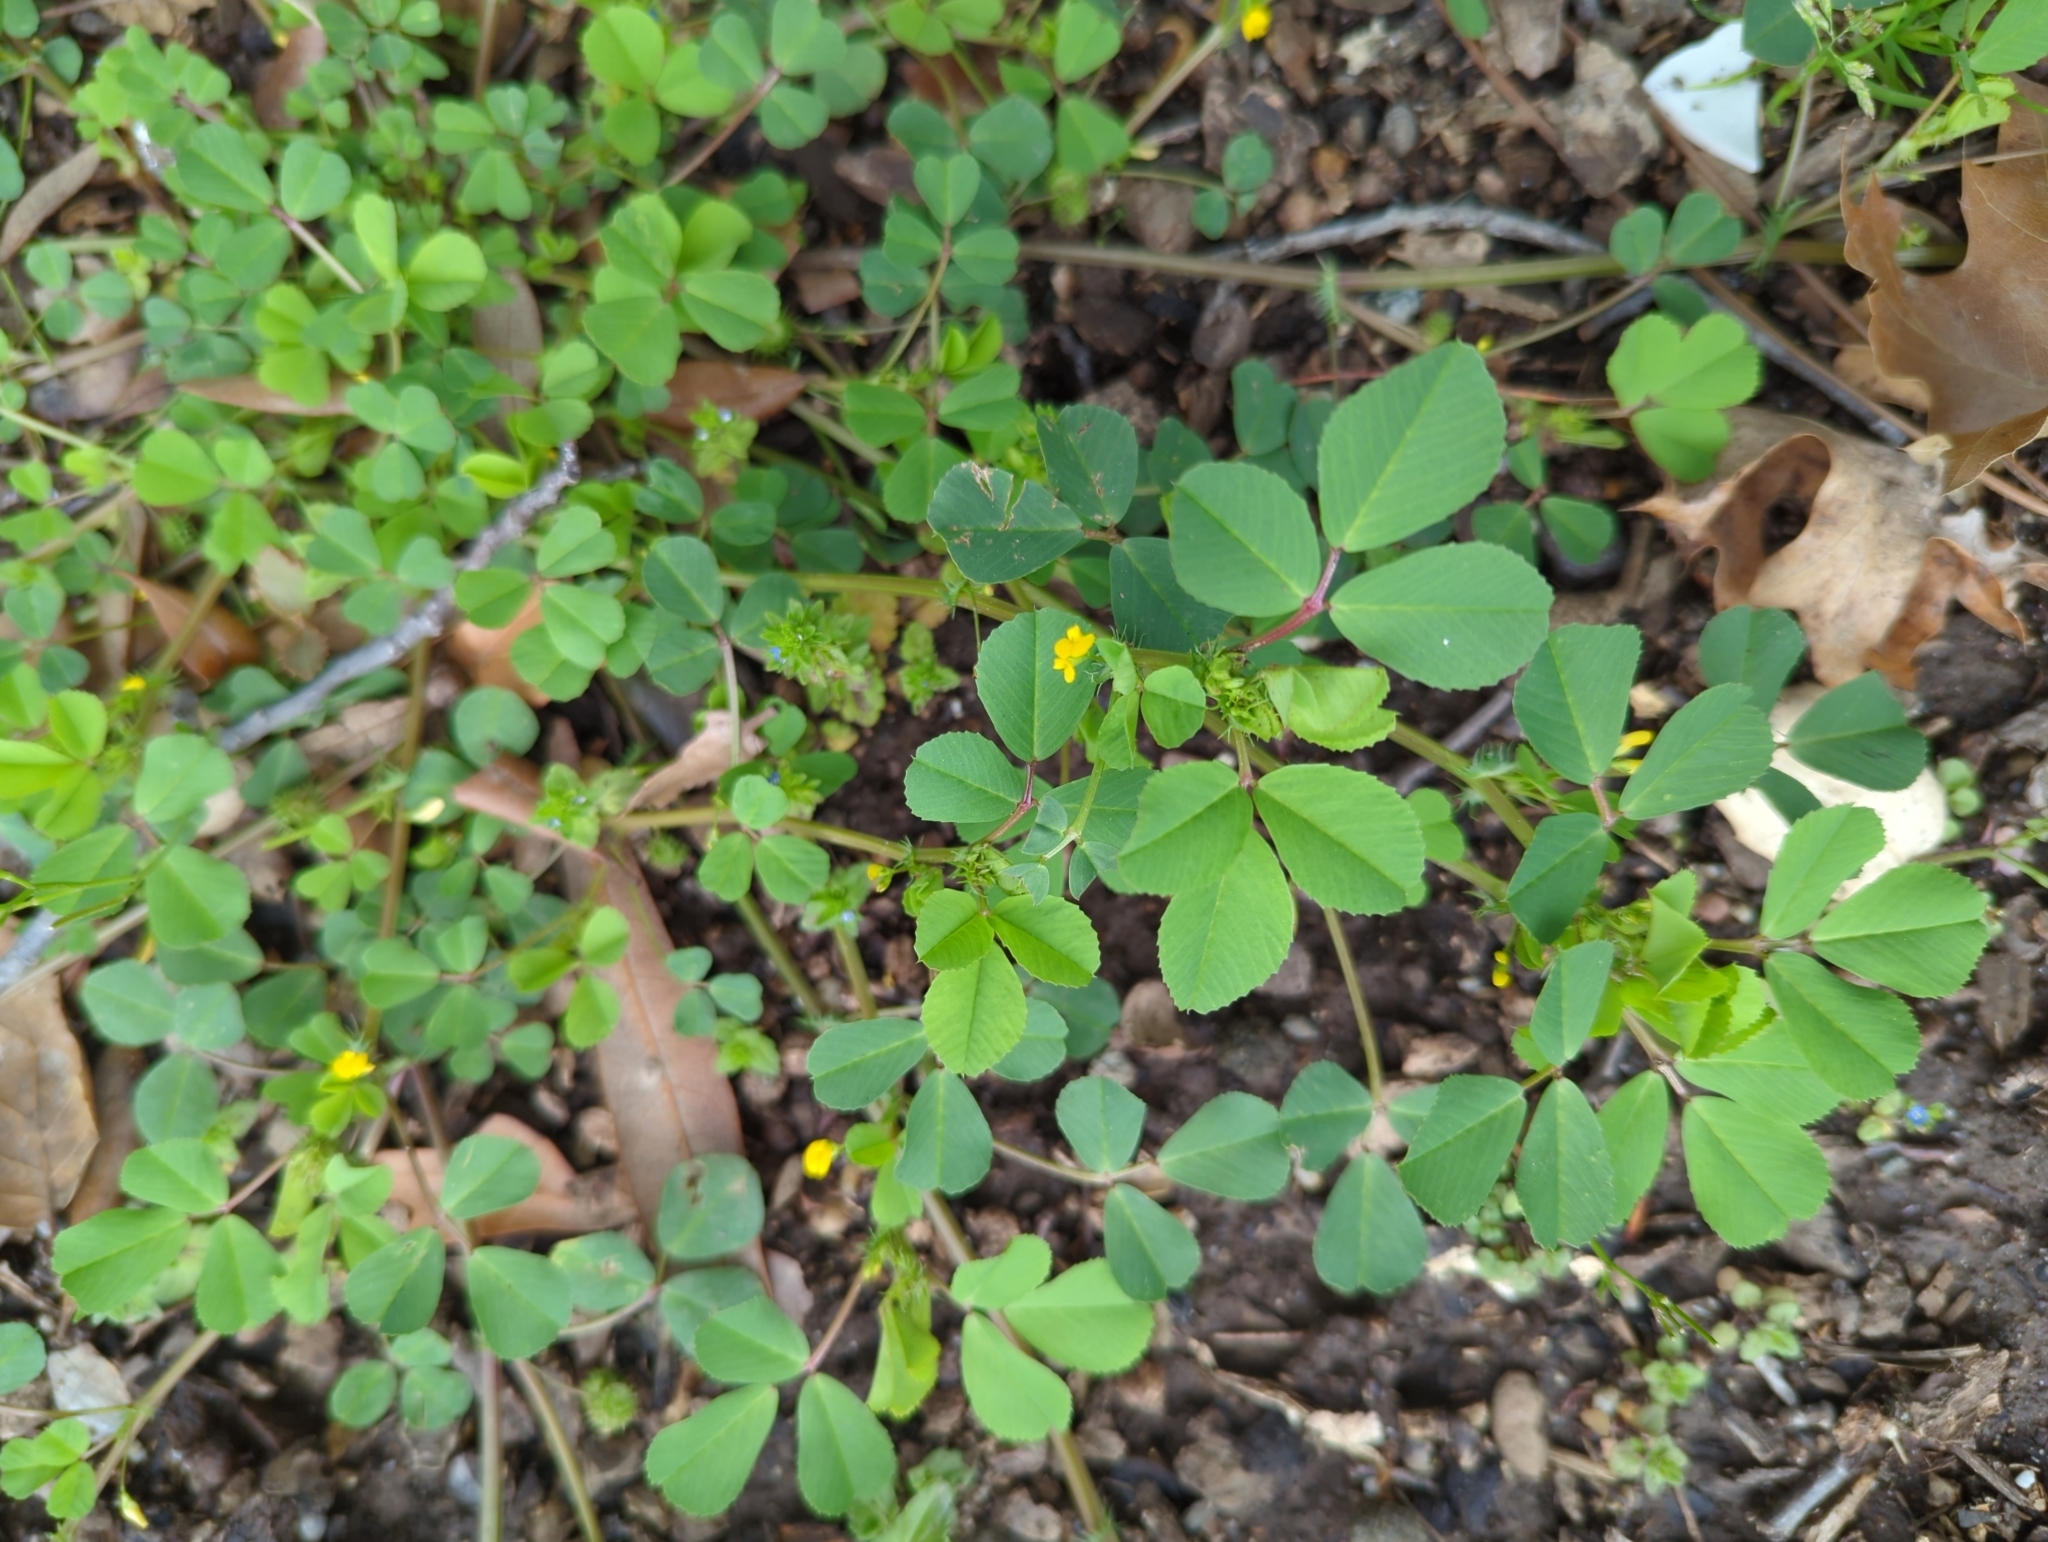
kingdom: Plantae
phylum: Tracheophyta
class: Magnoliopsida
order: Fabales
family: Fabaceae
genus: Medicago
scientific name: Medicago polymorpha
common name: Burclover
